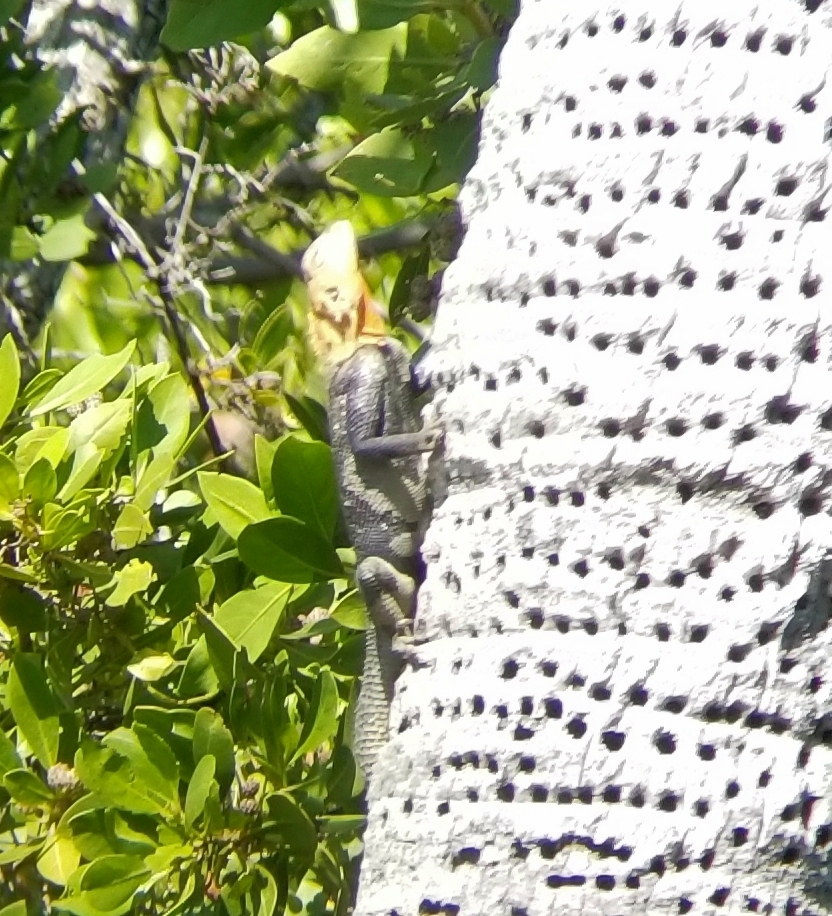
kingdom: Animalia
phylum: Chordata
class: Squamata
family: Agamidae
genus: Agama
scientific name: Agama picticauda
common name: Red-headed agama
